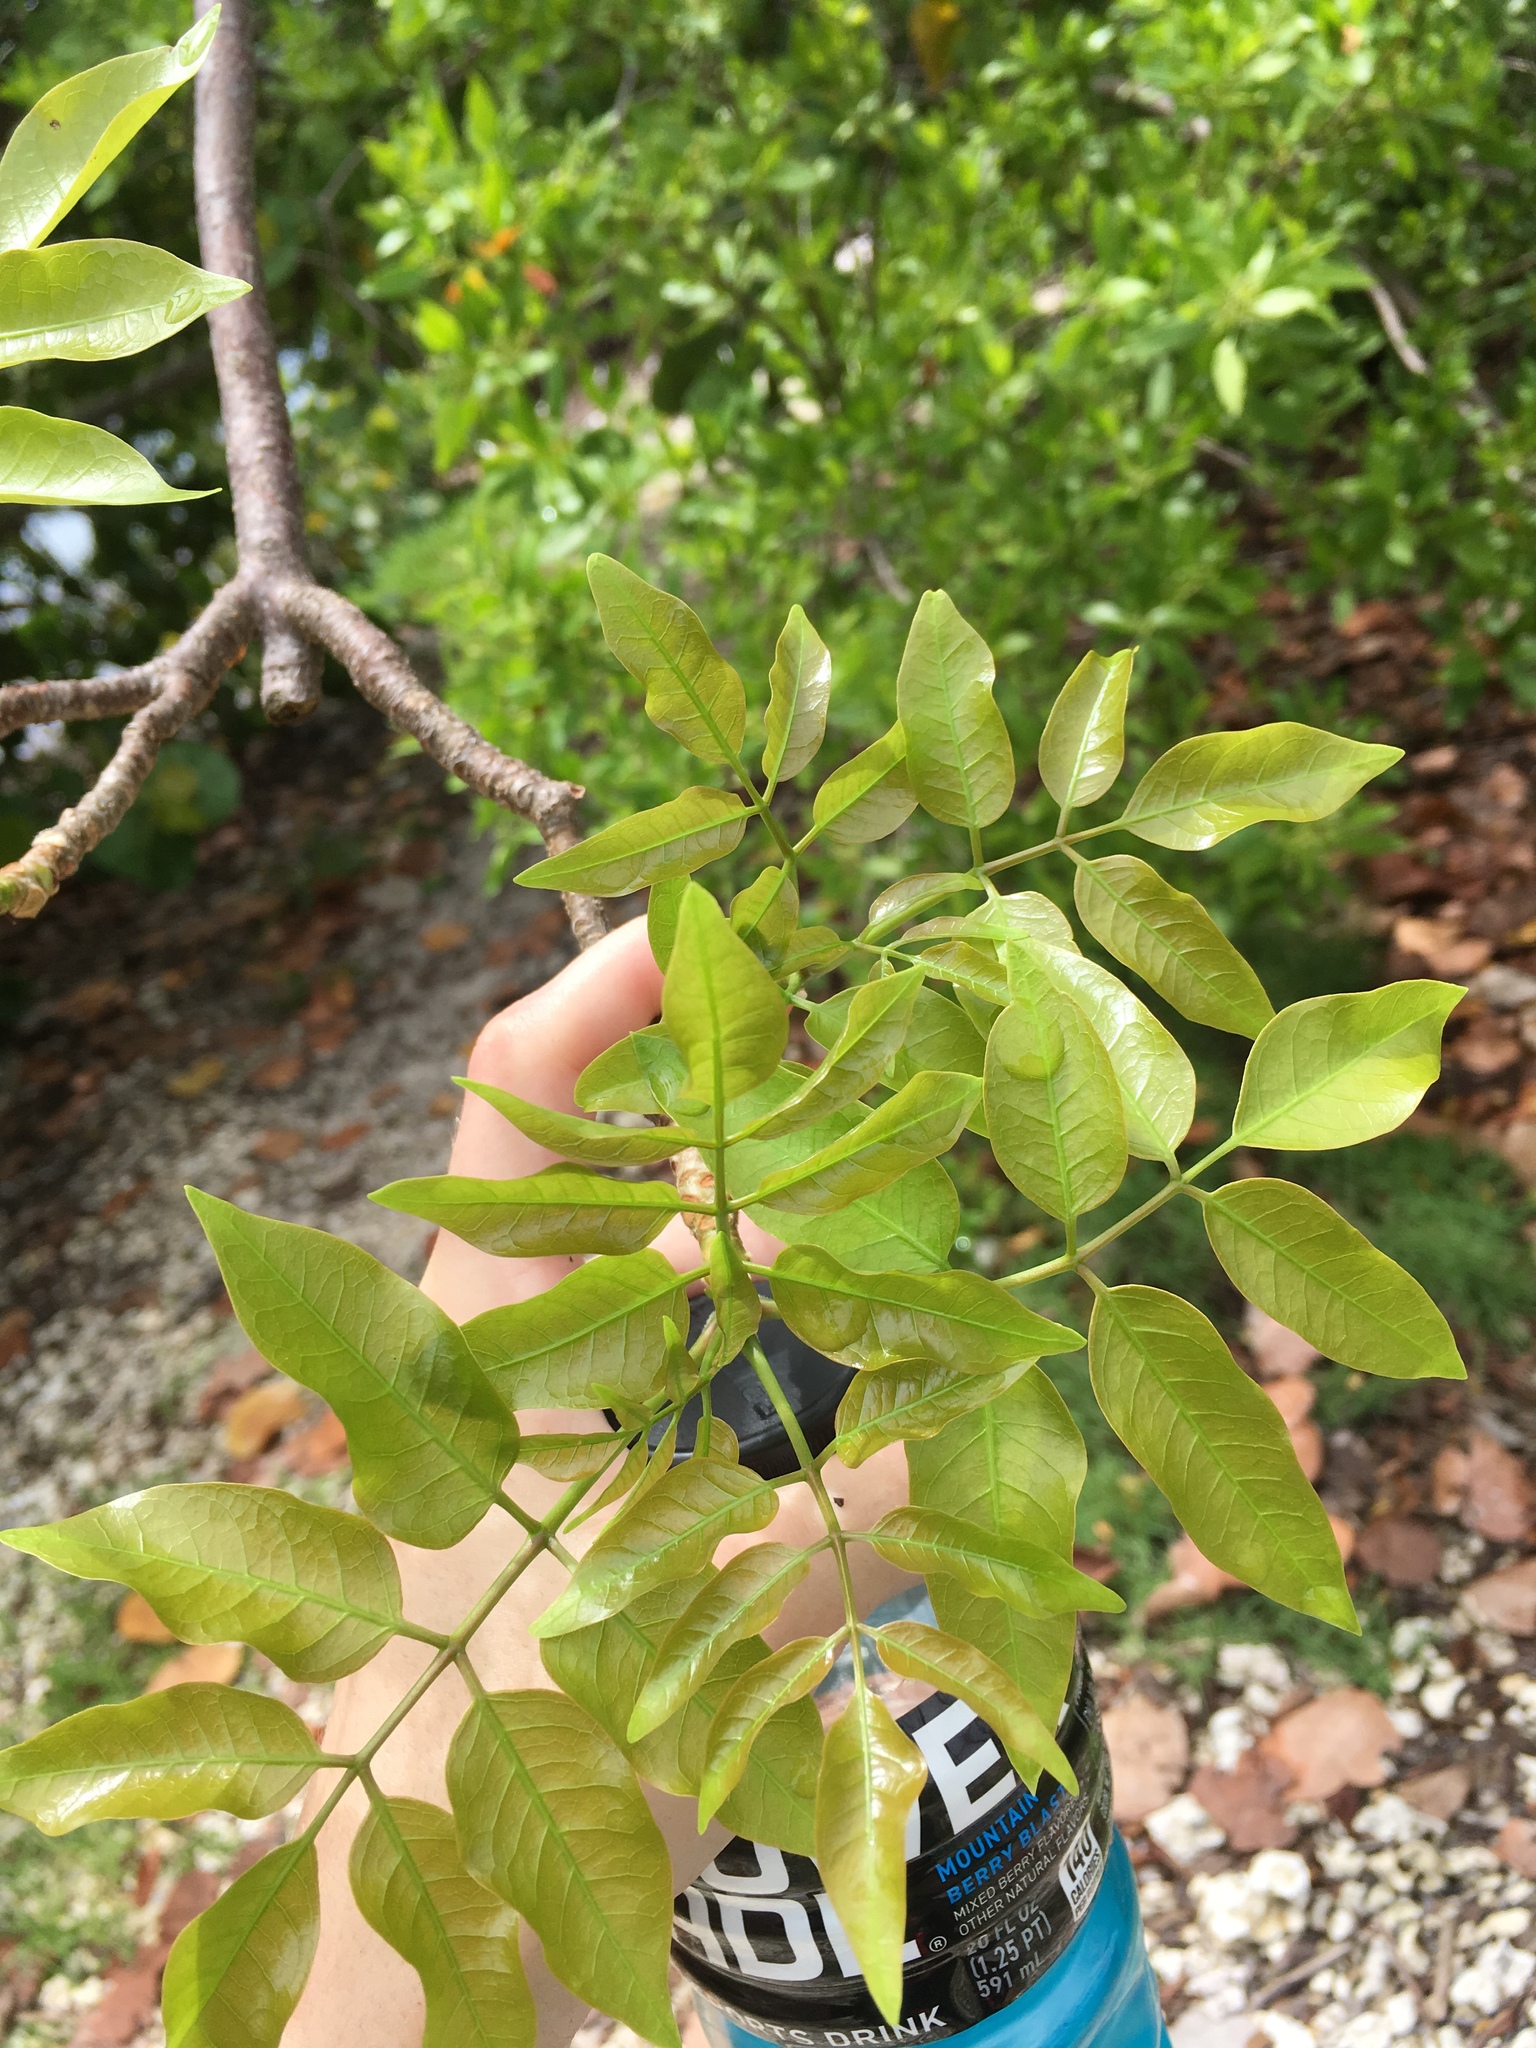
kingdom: Plantae
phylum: Tracheophyta
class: Magnoliopsida
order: Sapindales
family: Burseraceae
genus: Bursera
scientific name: Bursera simaruba
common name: Turpentine tree
